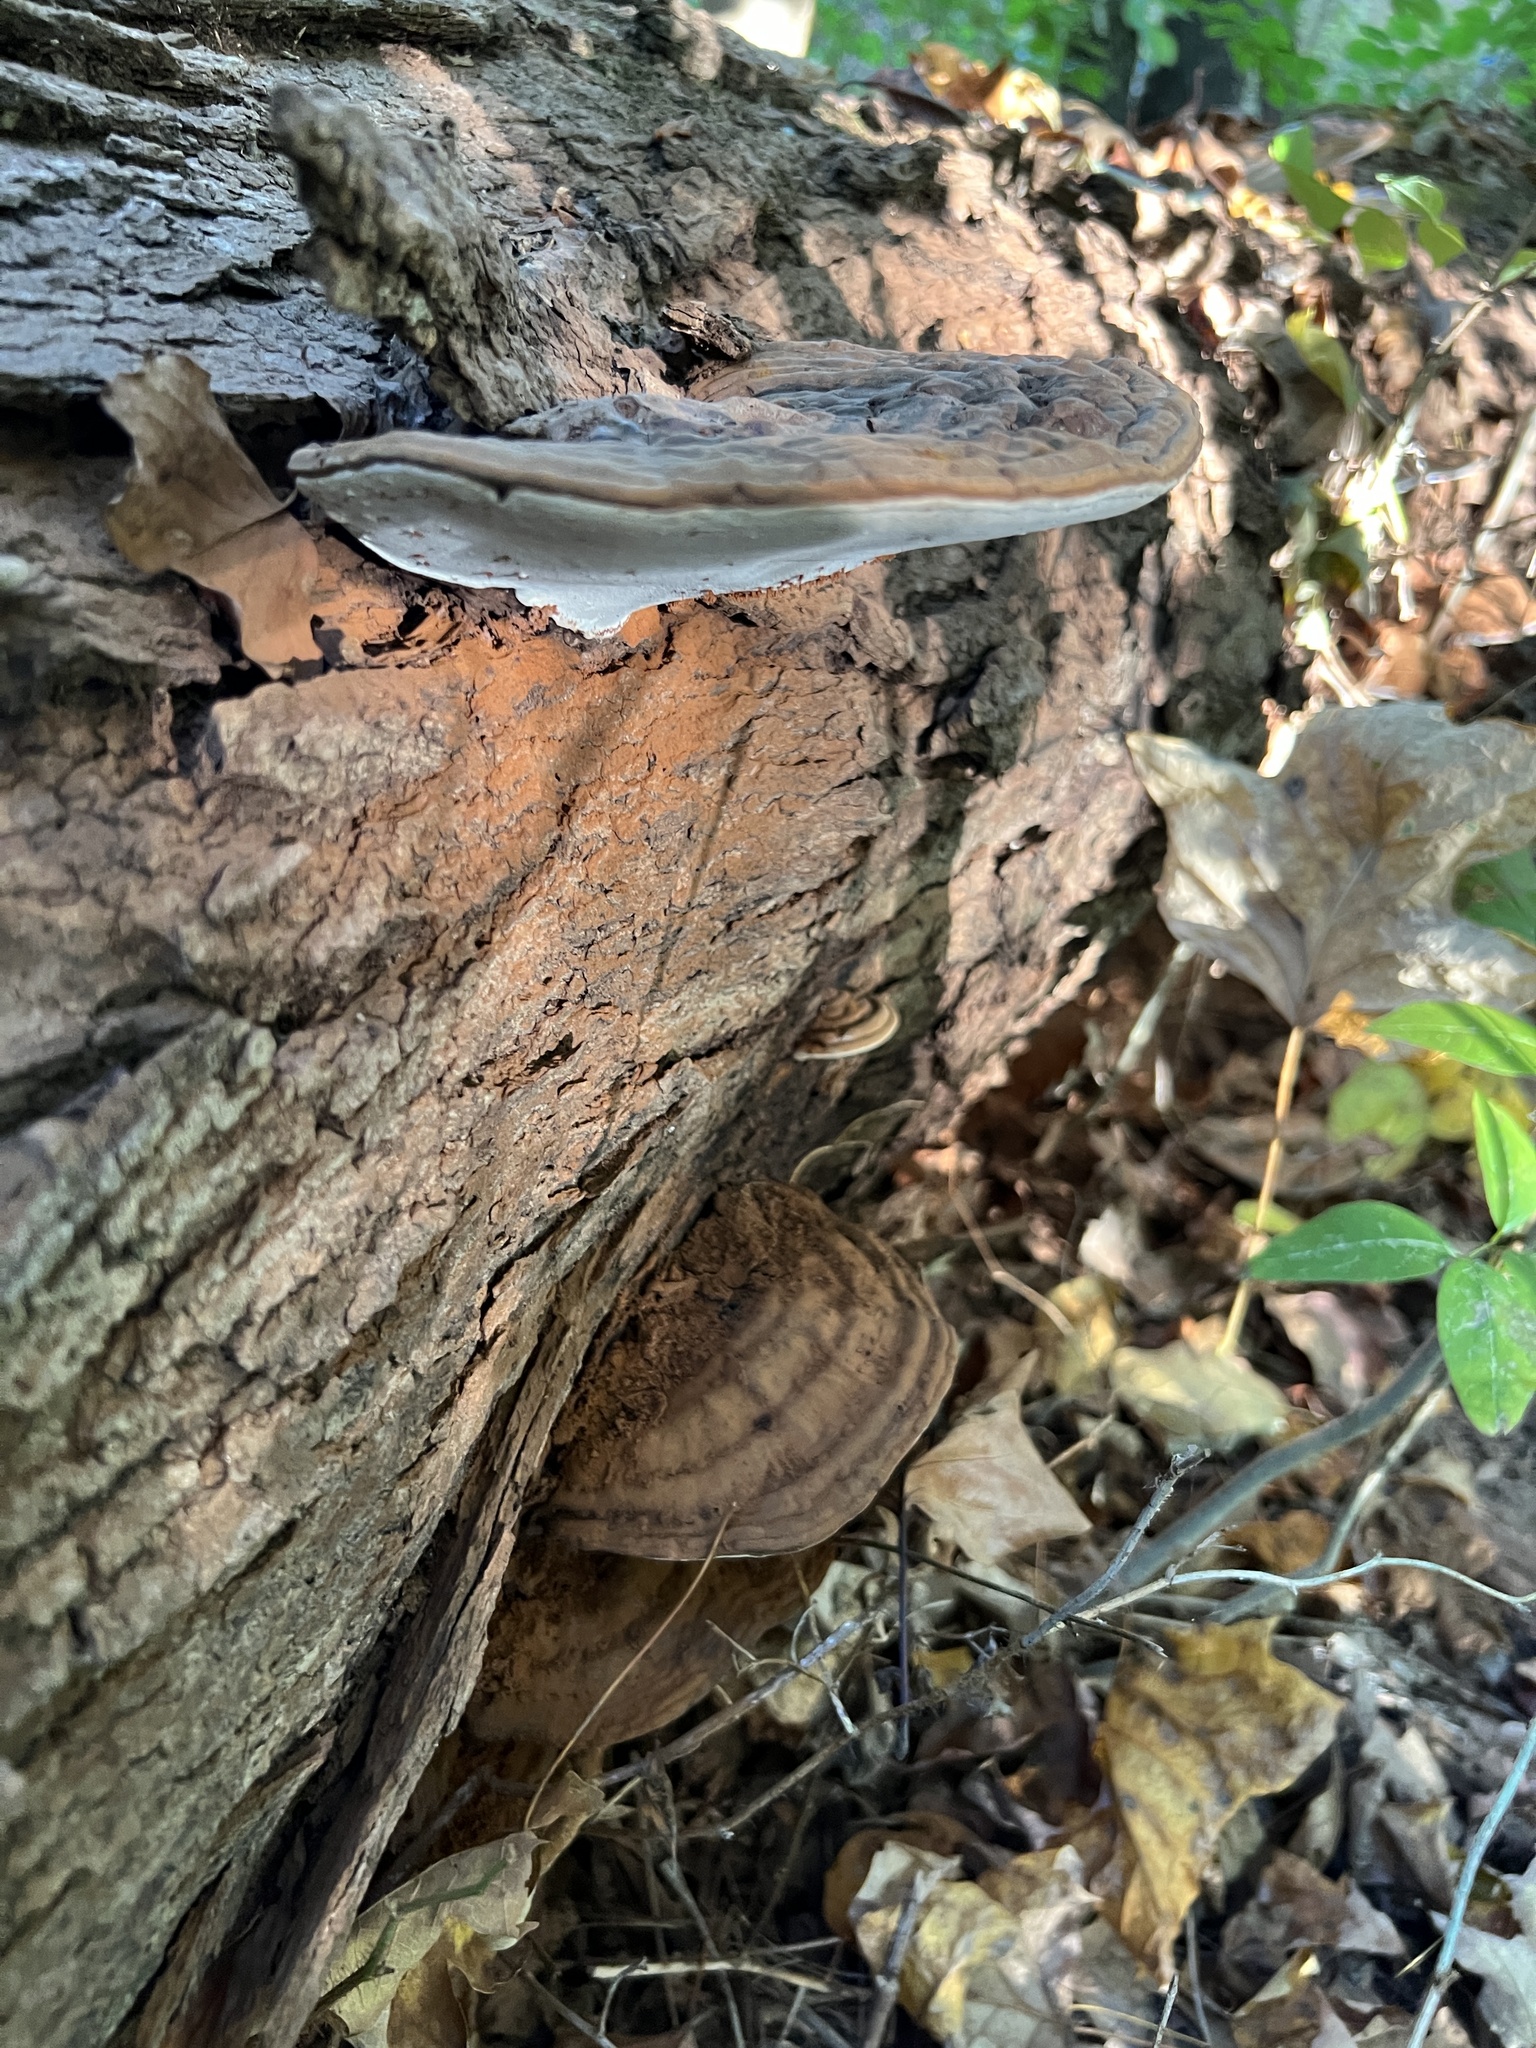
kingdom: Fungi
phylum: Basidiomycota
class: Agaricomycetes
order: Polyporales
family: Polyporaceae
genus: Ganoderma
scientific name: Ganoderma lobatum
